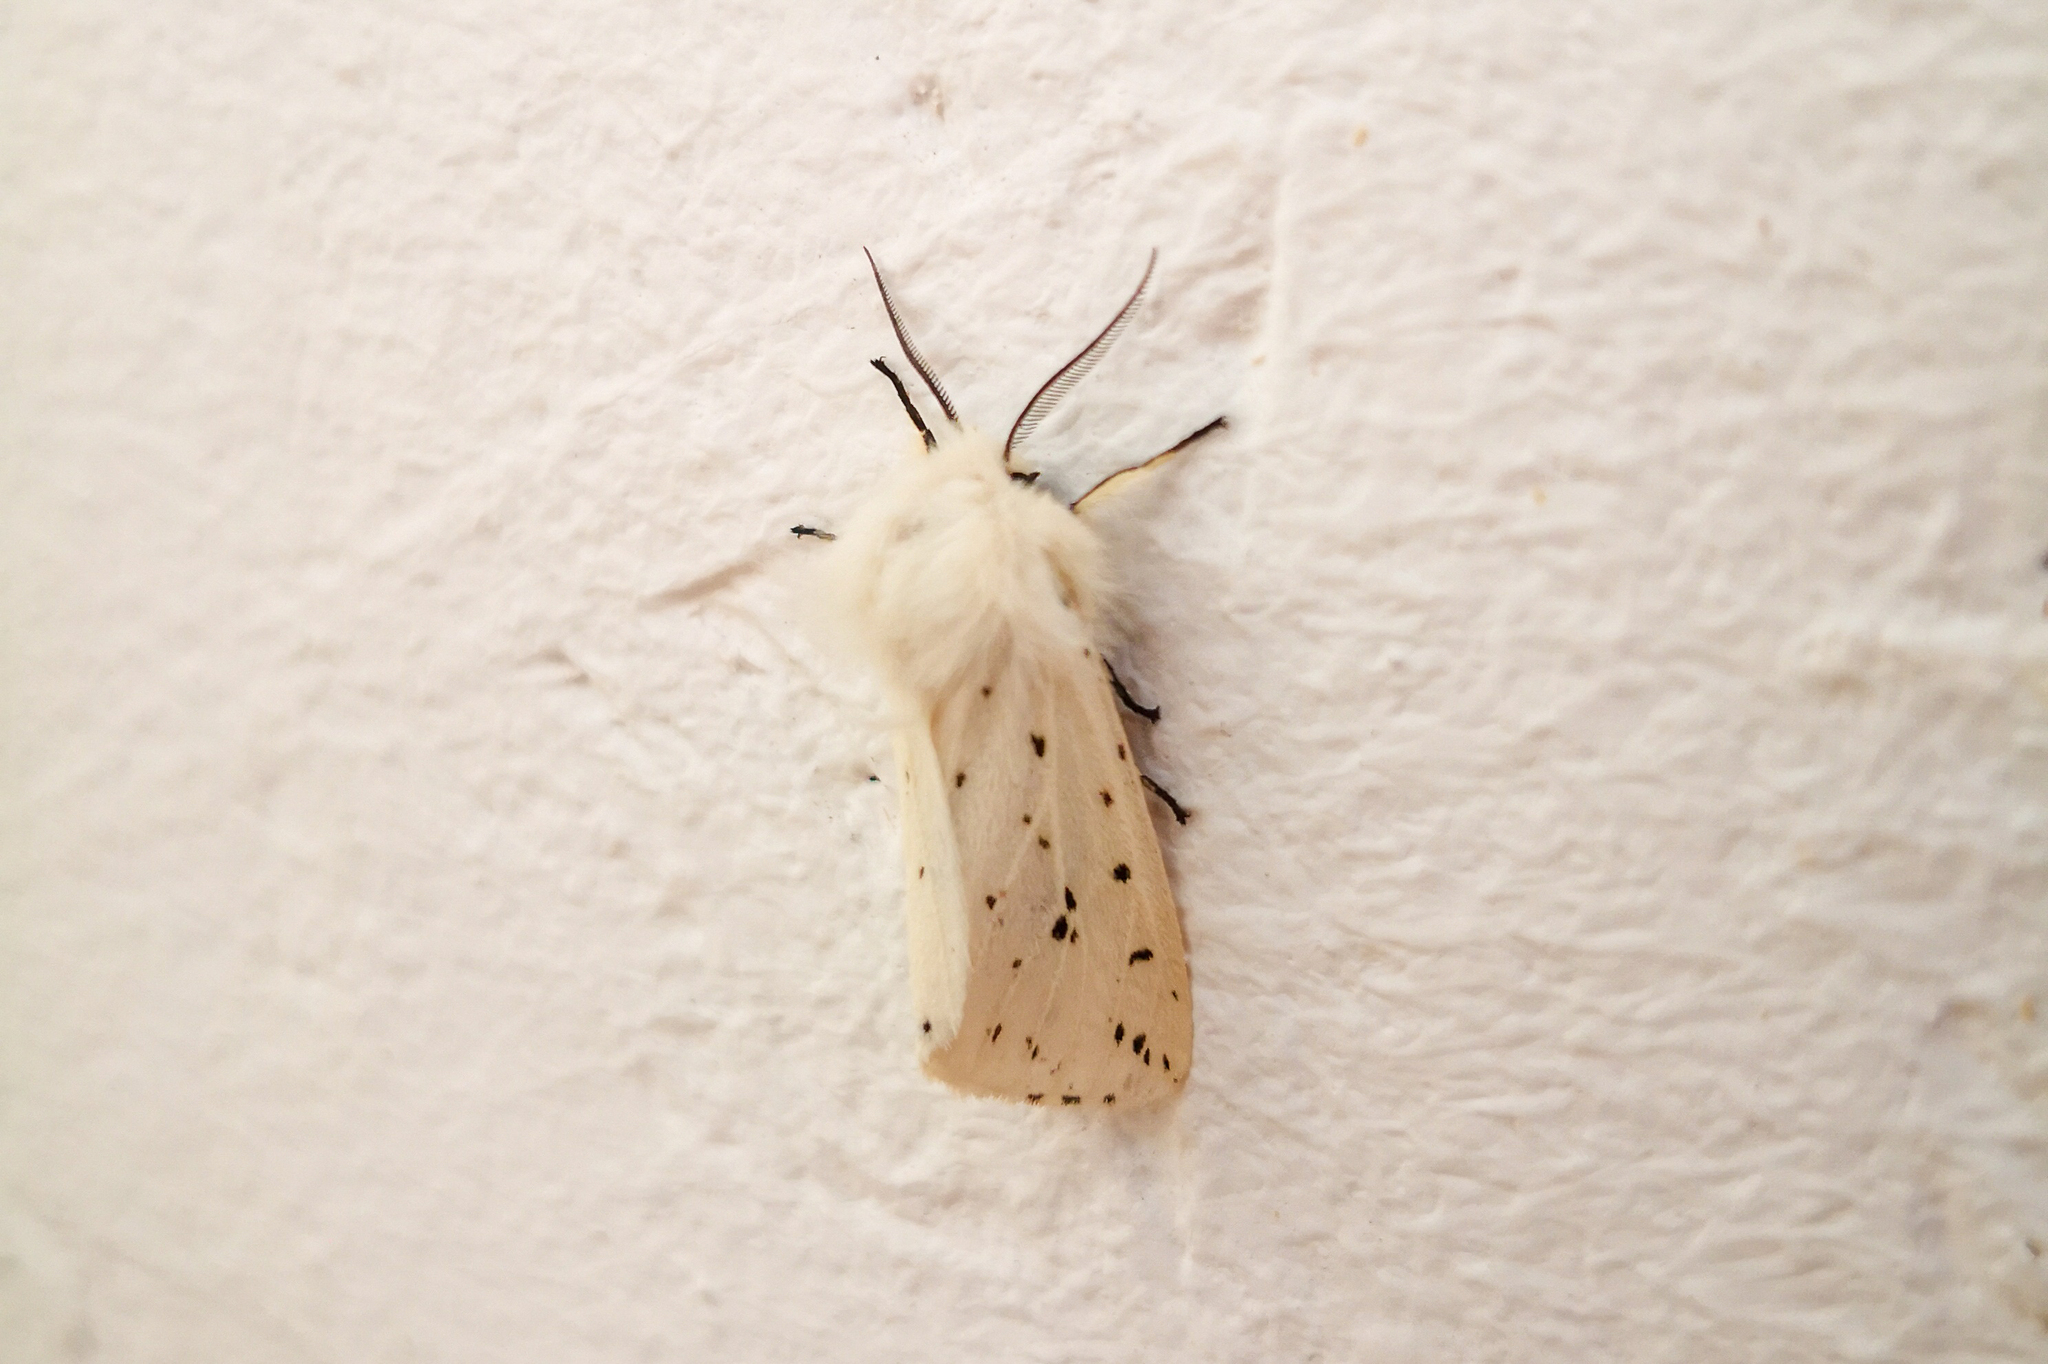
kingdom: Animalia
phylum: Arthropoda
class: Insecta
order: Lepidoptera
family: Erebidae
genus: Spilosoma
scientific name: Spilosoma lubricipeda
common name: White ermine
